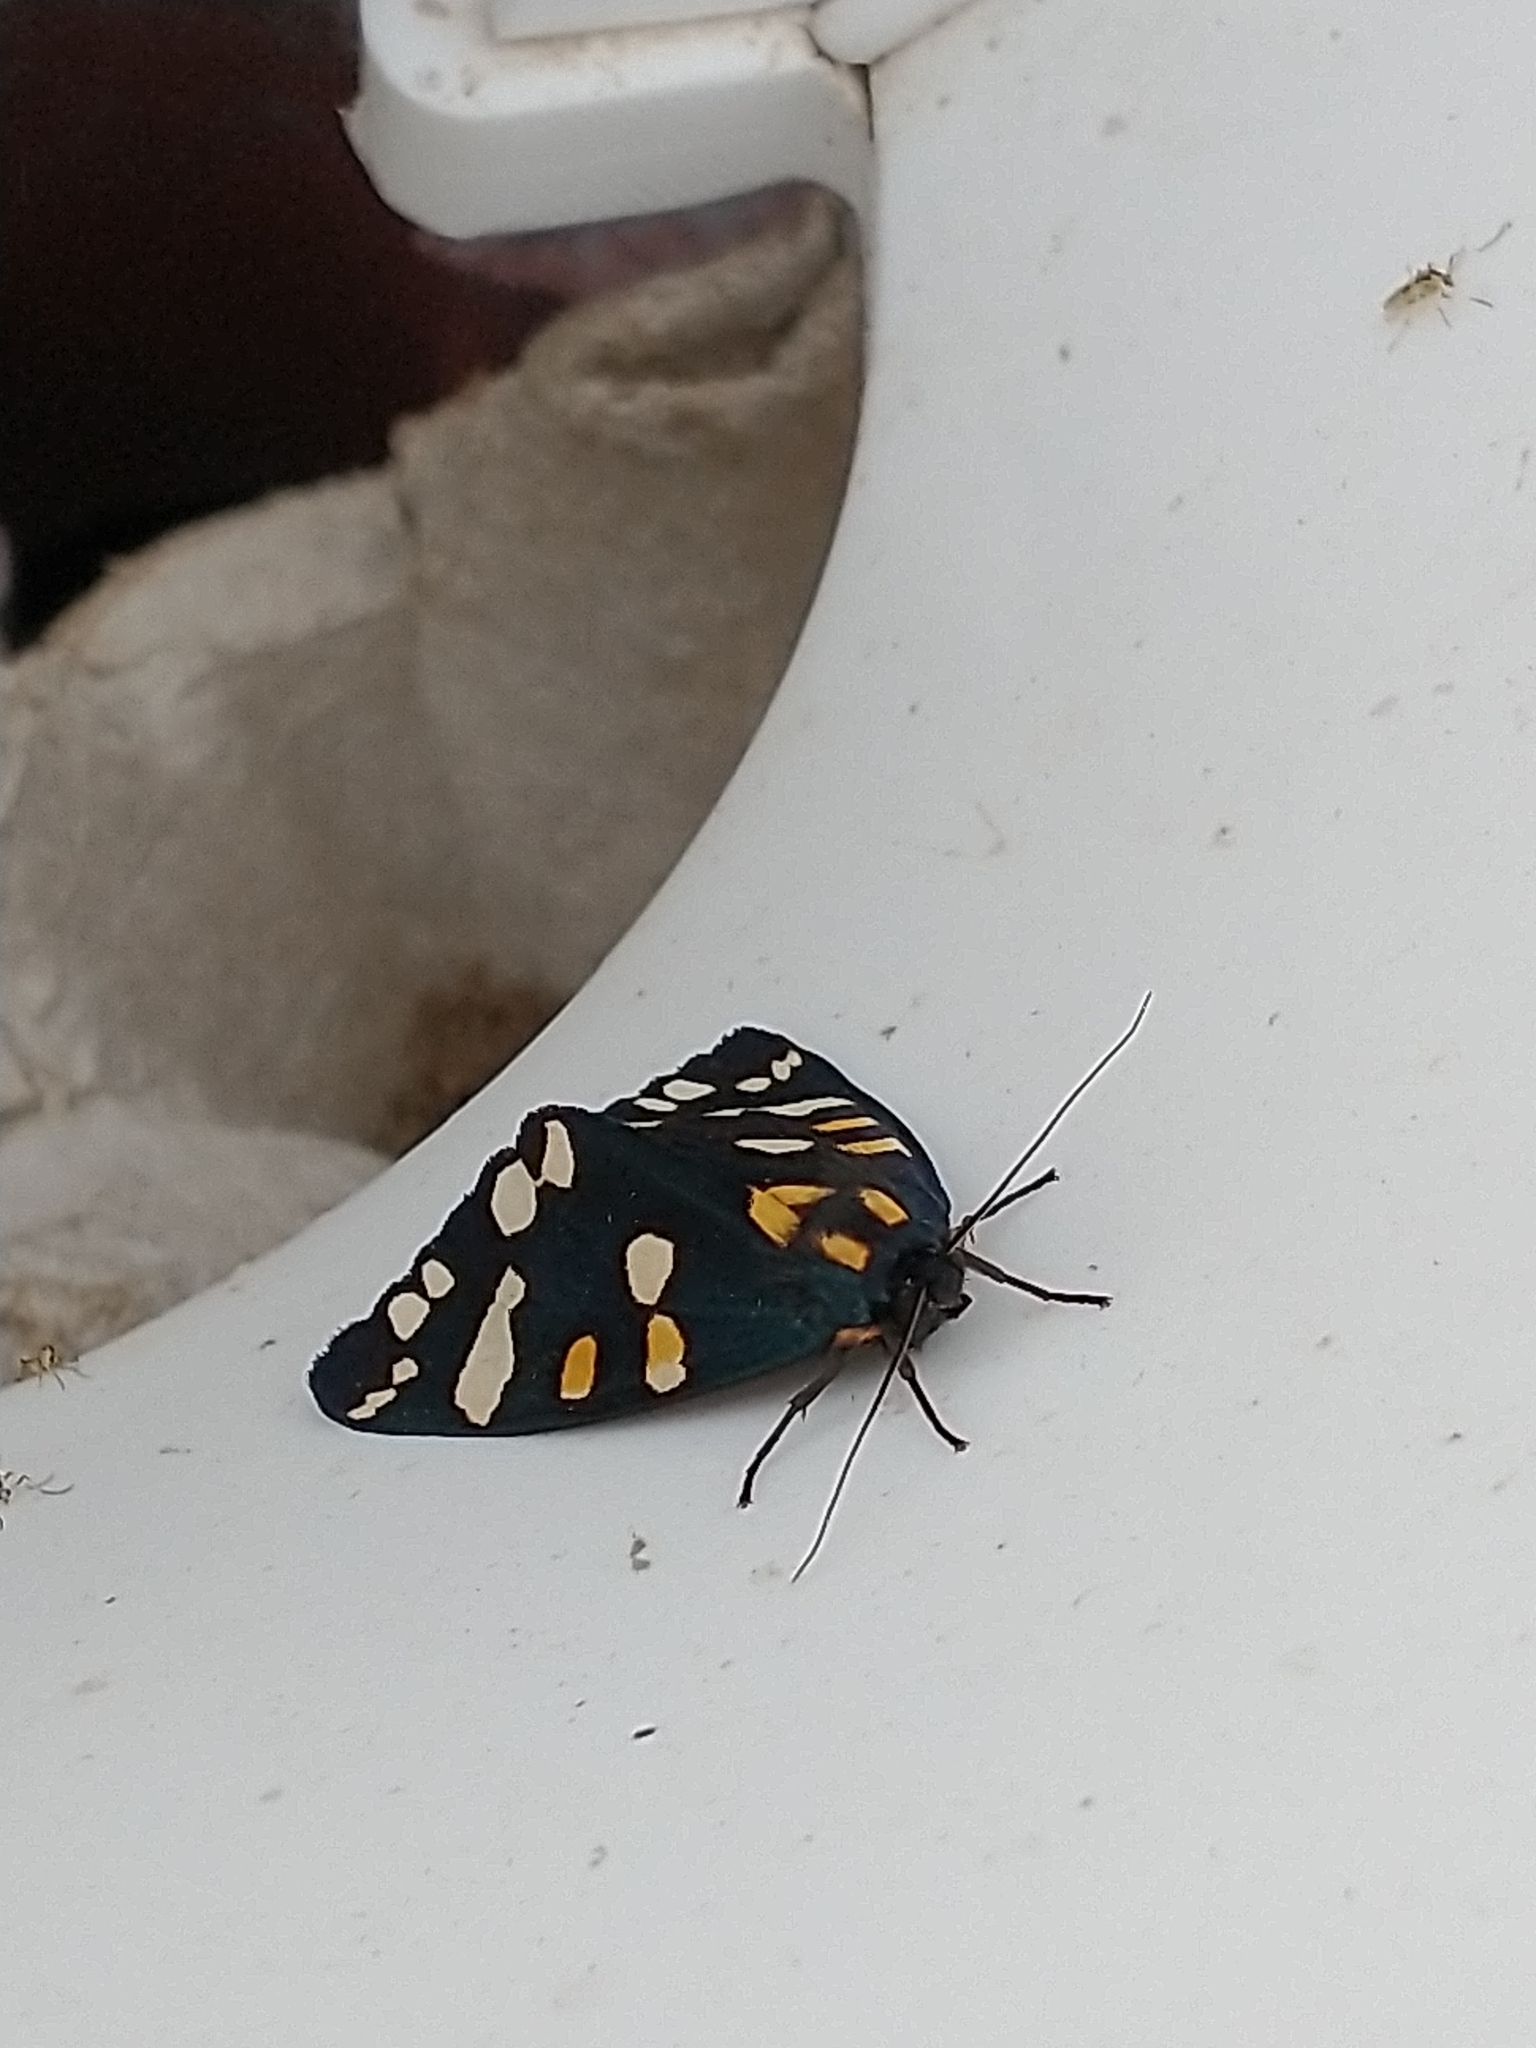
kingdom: Animalia
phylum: Arthropoda
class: Insecta
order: Lepidoptera
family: Erebidae
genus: Callimorpha
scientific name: Callimorpha dominula
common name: Scarlet tiger
